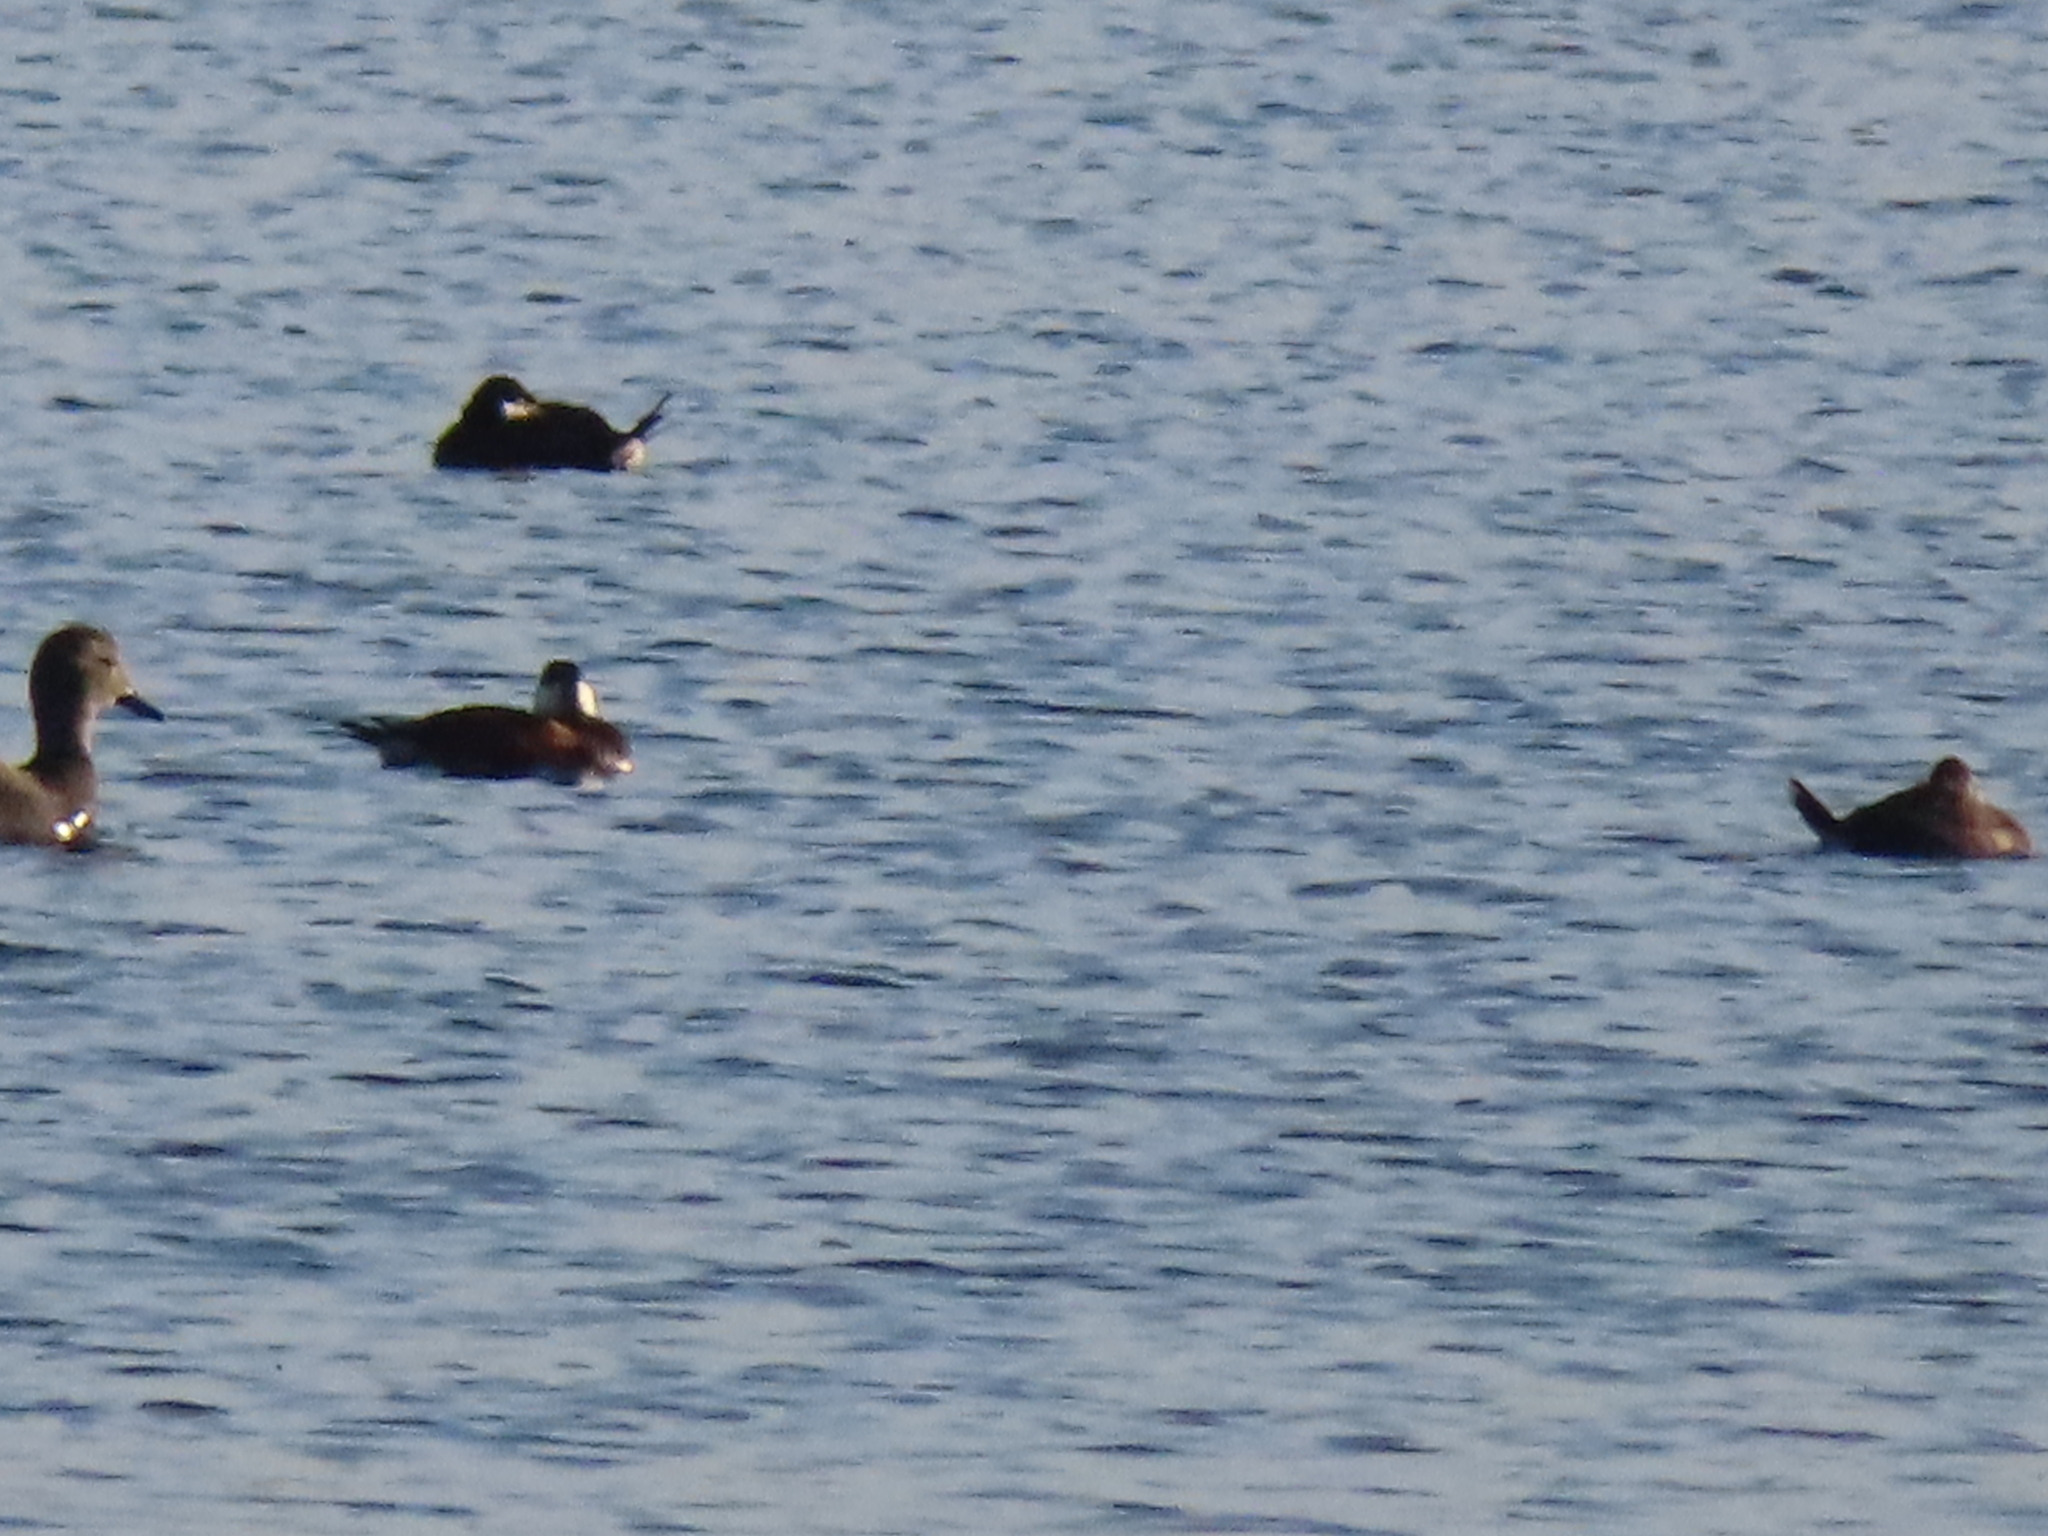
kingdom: Animalia
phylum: Chordata
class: Aves
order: Anseriformes
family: Anatidae
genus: Oxyura
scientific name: Oxyura jamaicensis
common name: Ruddy duck
